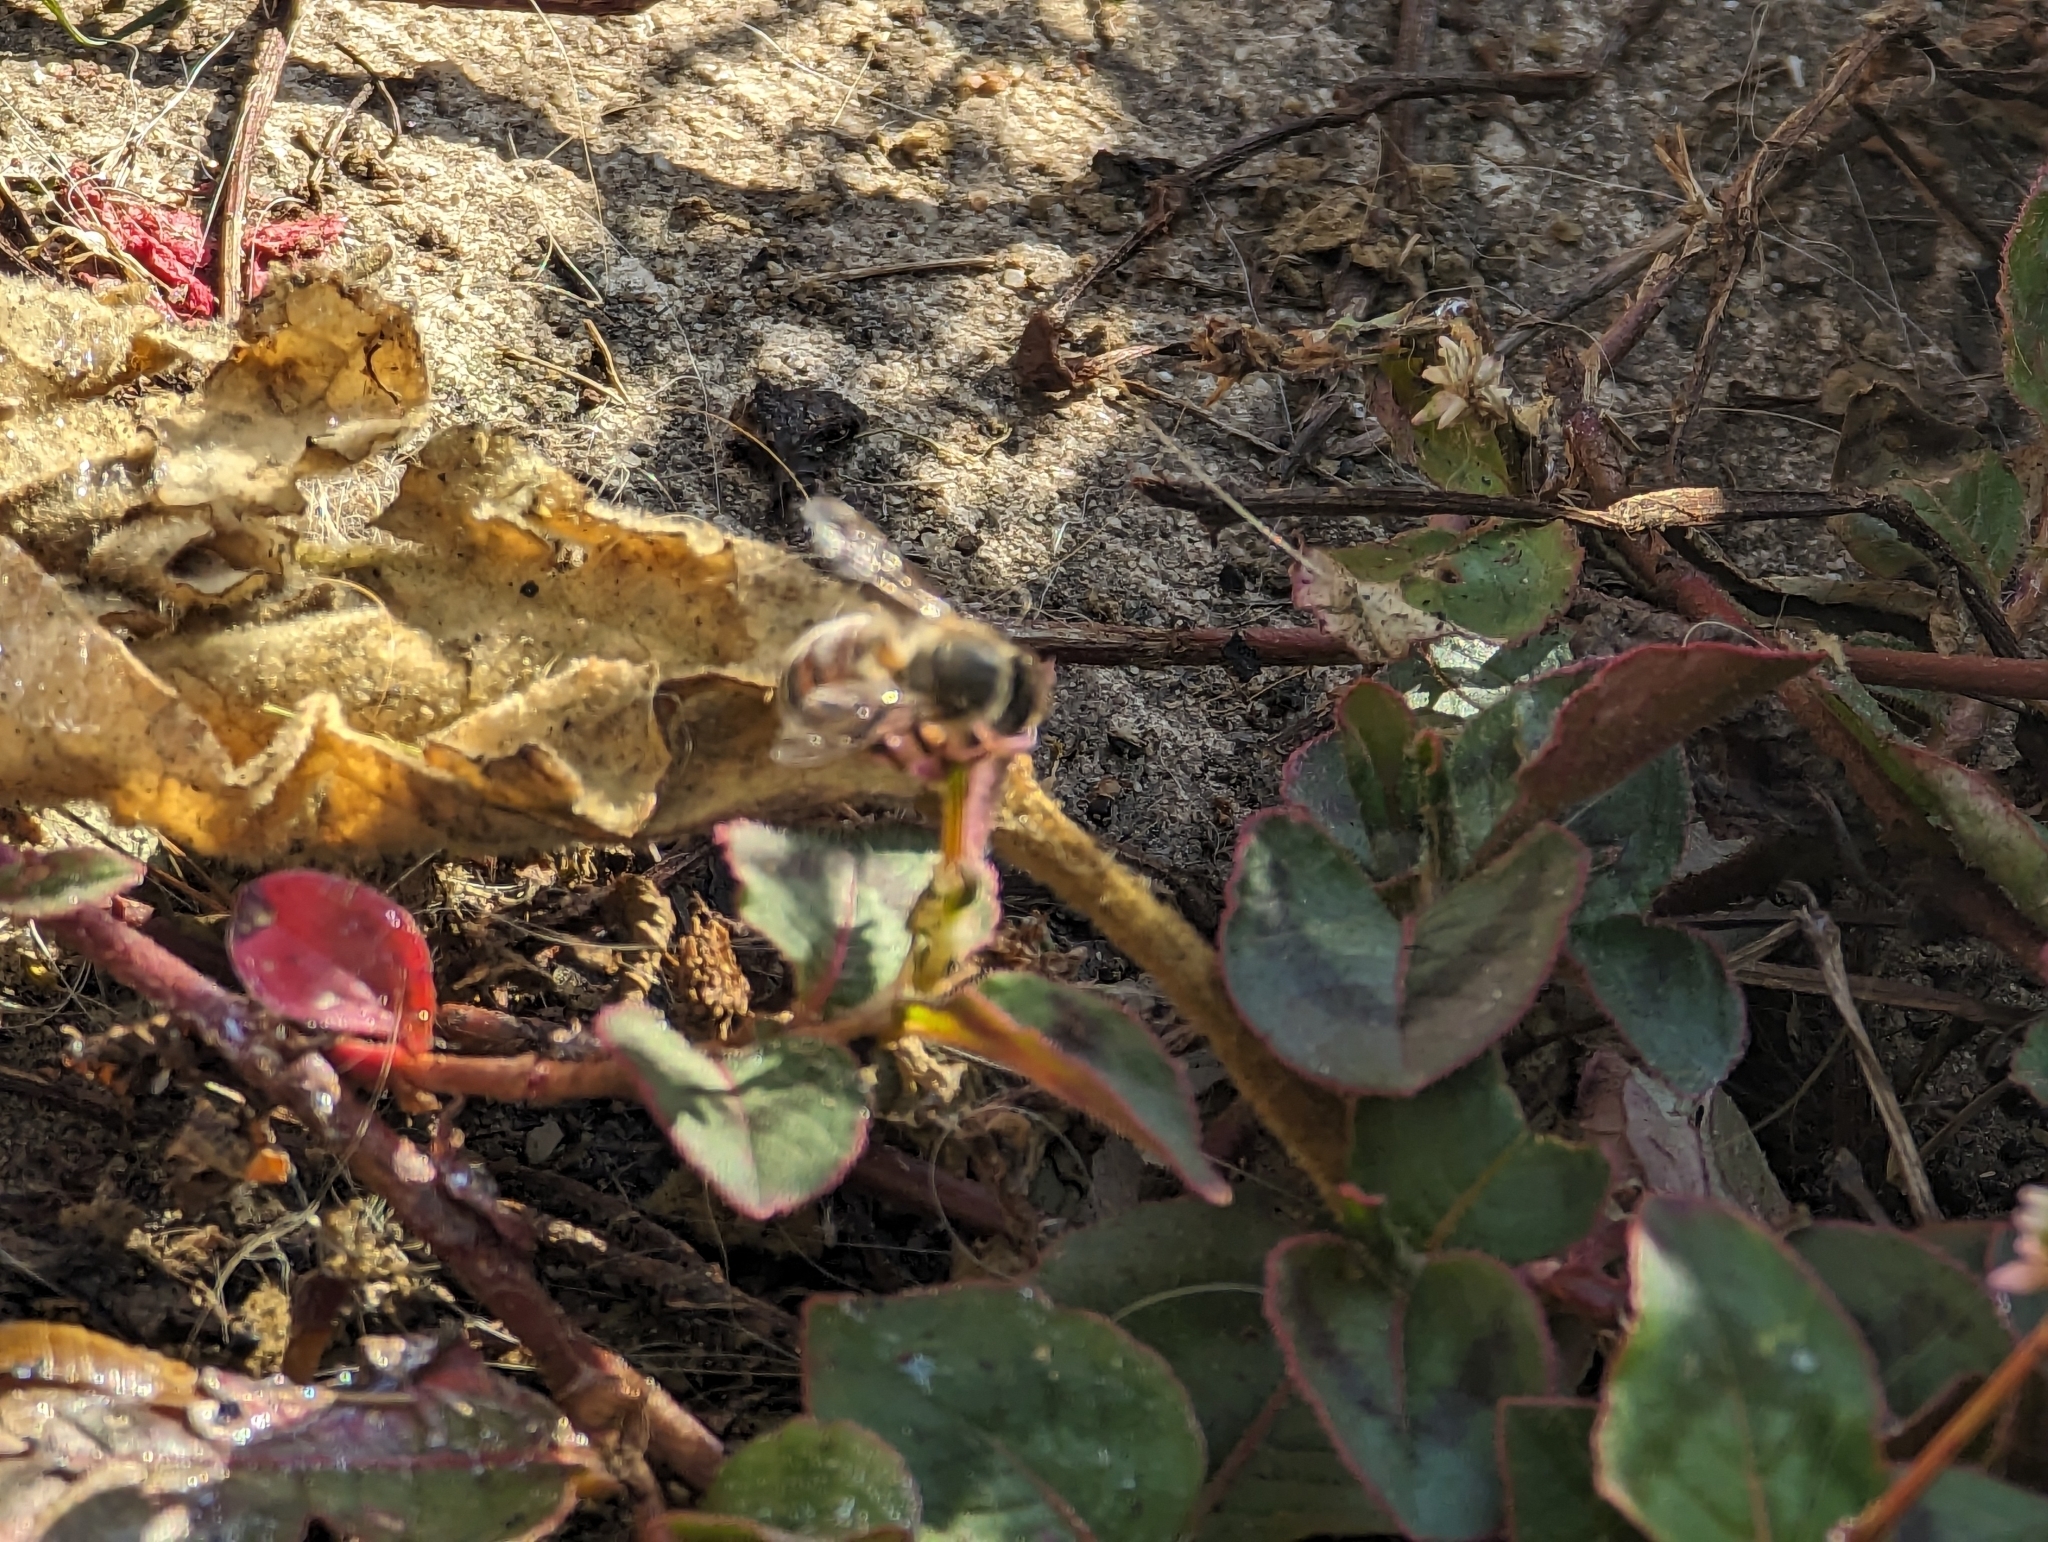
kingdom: Animalia
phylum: Arthropoda
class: Insecta
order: Hymenoptera
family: Apidae
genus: Apis
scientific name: Apis mellifera
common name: Honey bee
